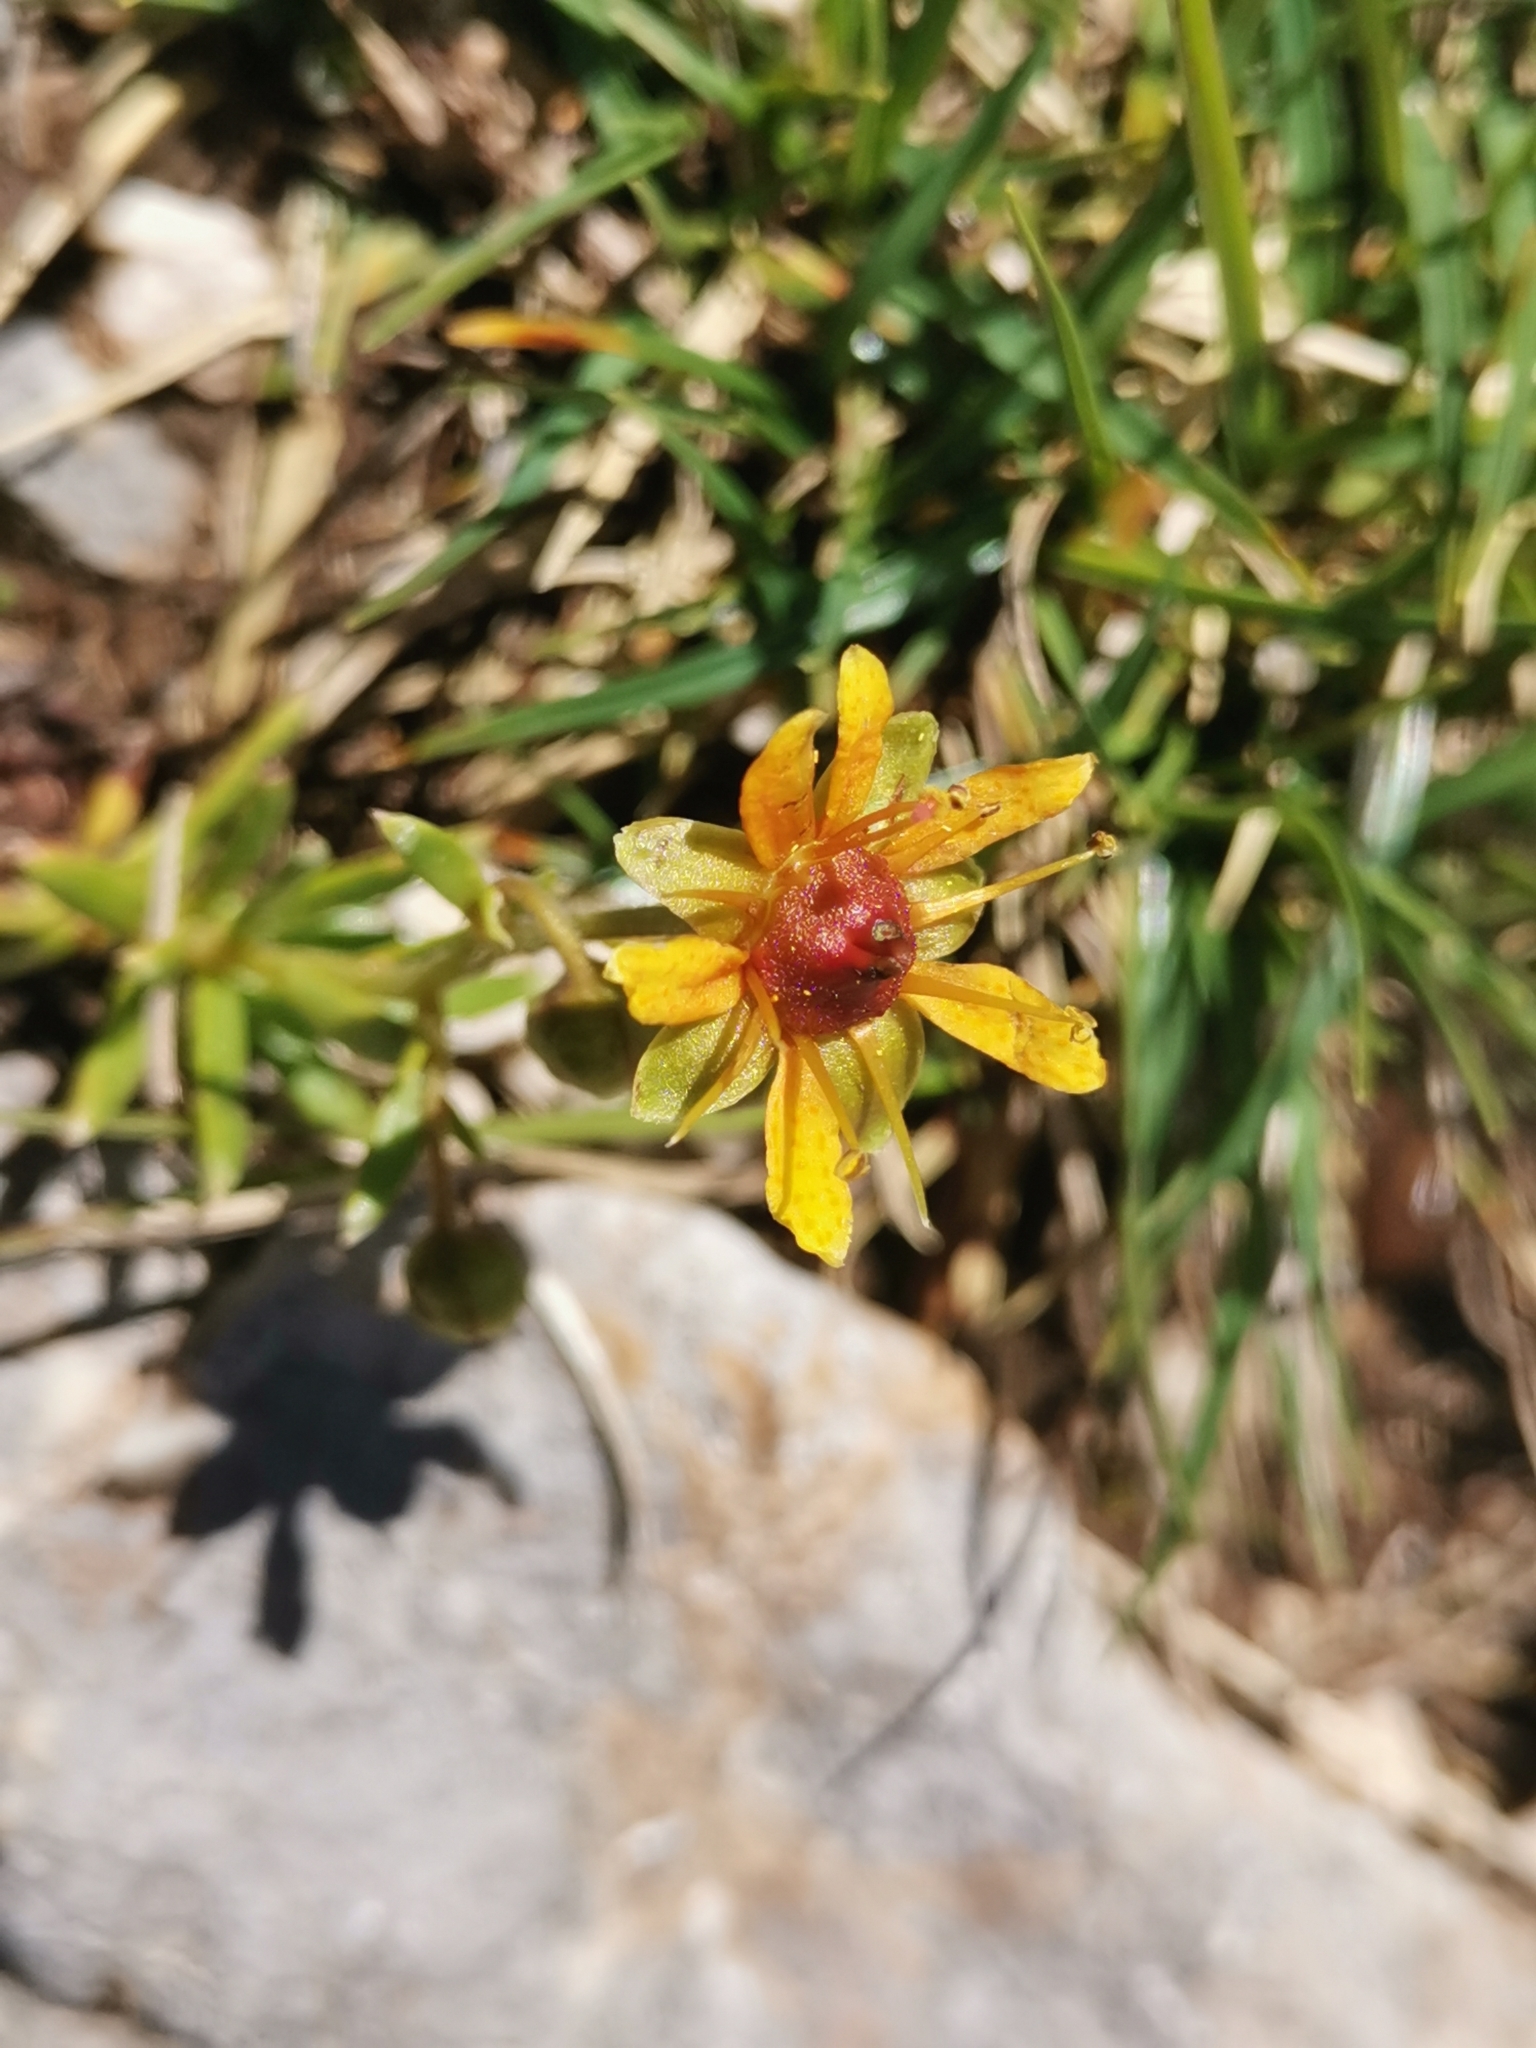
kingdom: Plantae
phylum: Tracheophyta
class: Magnoliopsida
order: Saxifragales
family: Saxifragaceae
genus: Saxifraga
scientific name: Saxifraga aizoides
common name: Yellow mountain saxifrage
